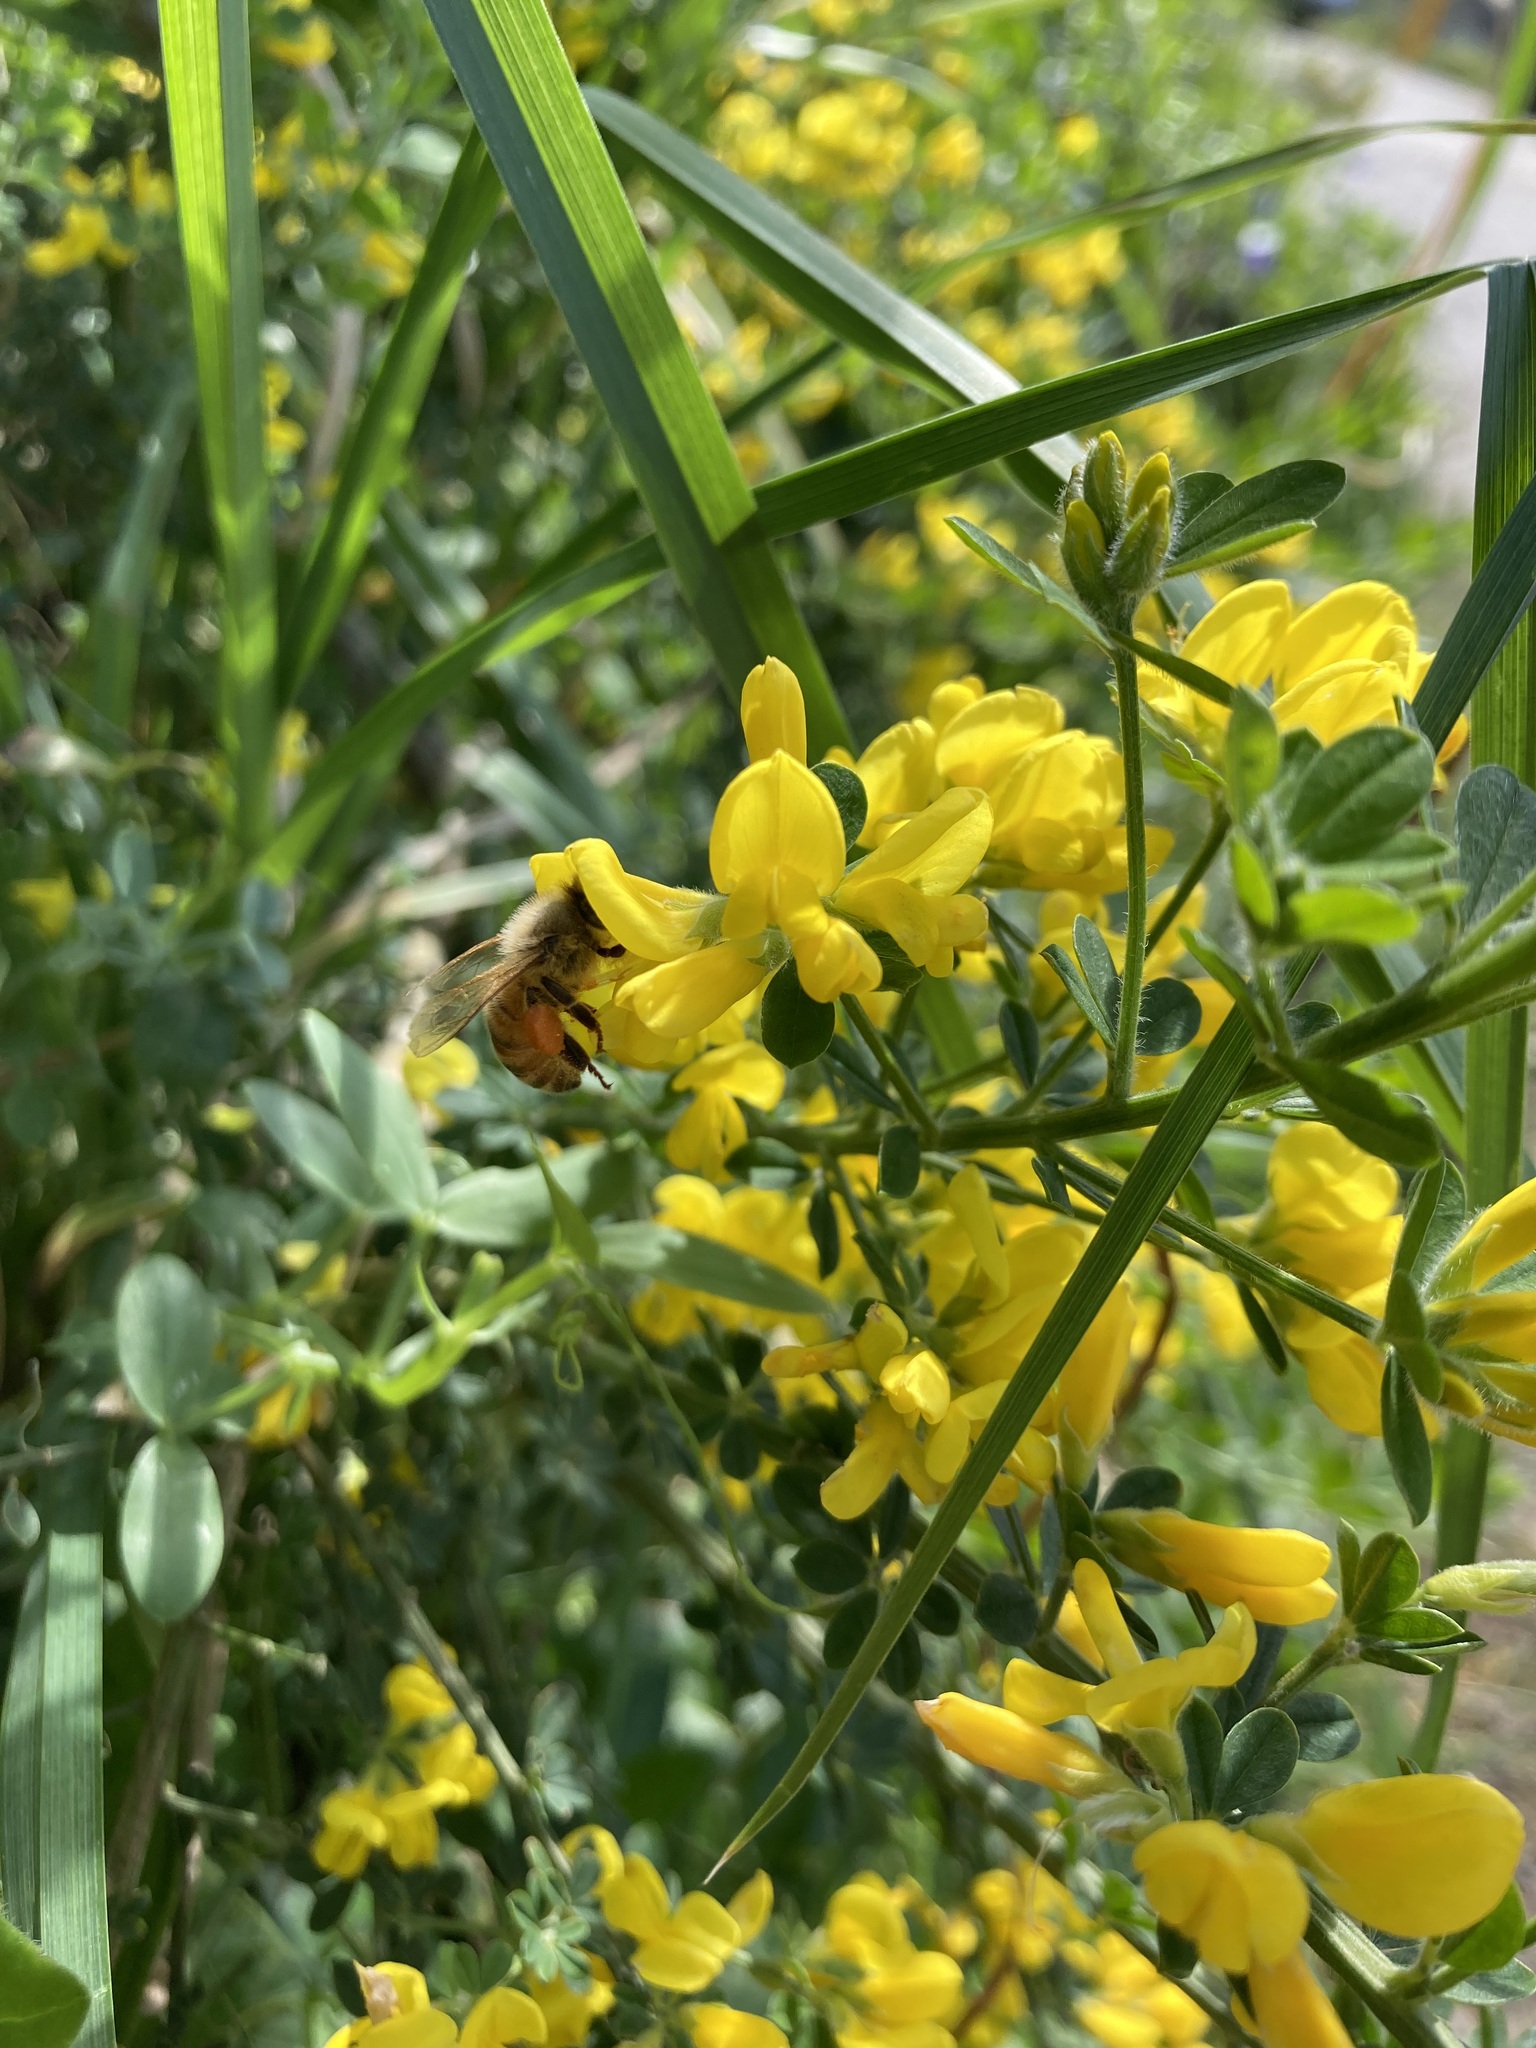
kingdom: Animalia
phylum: Arthropoda
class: Insecta
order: Hymenoptera
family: Apidae
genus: Apis
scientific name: Apis mellifera
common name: Honey bee
